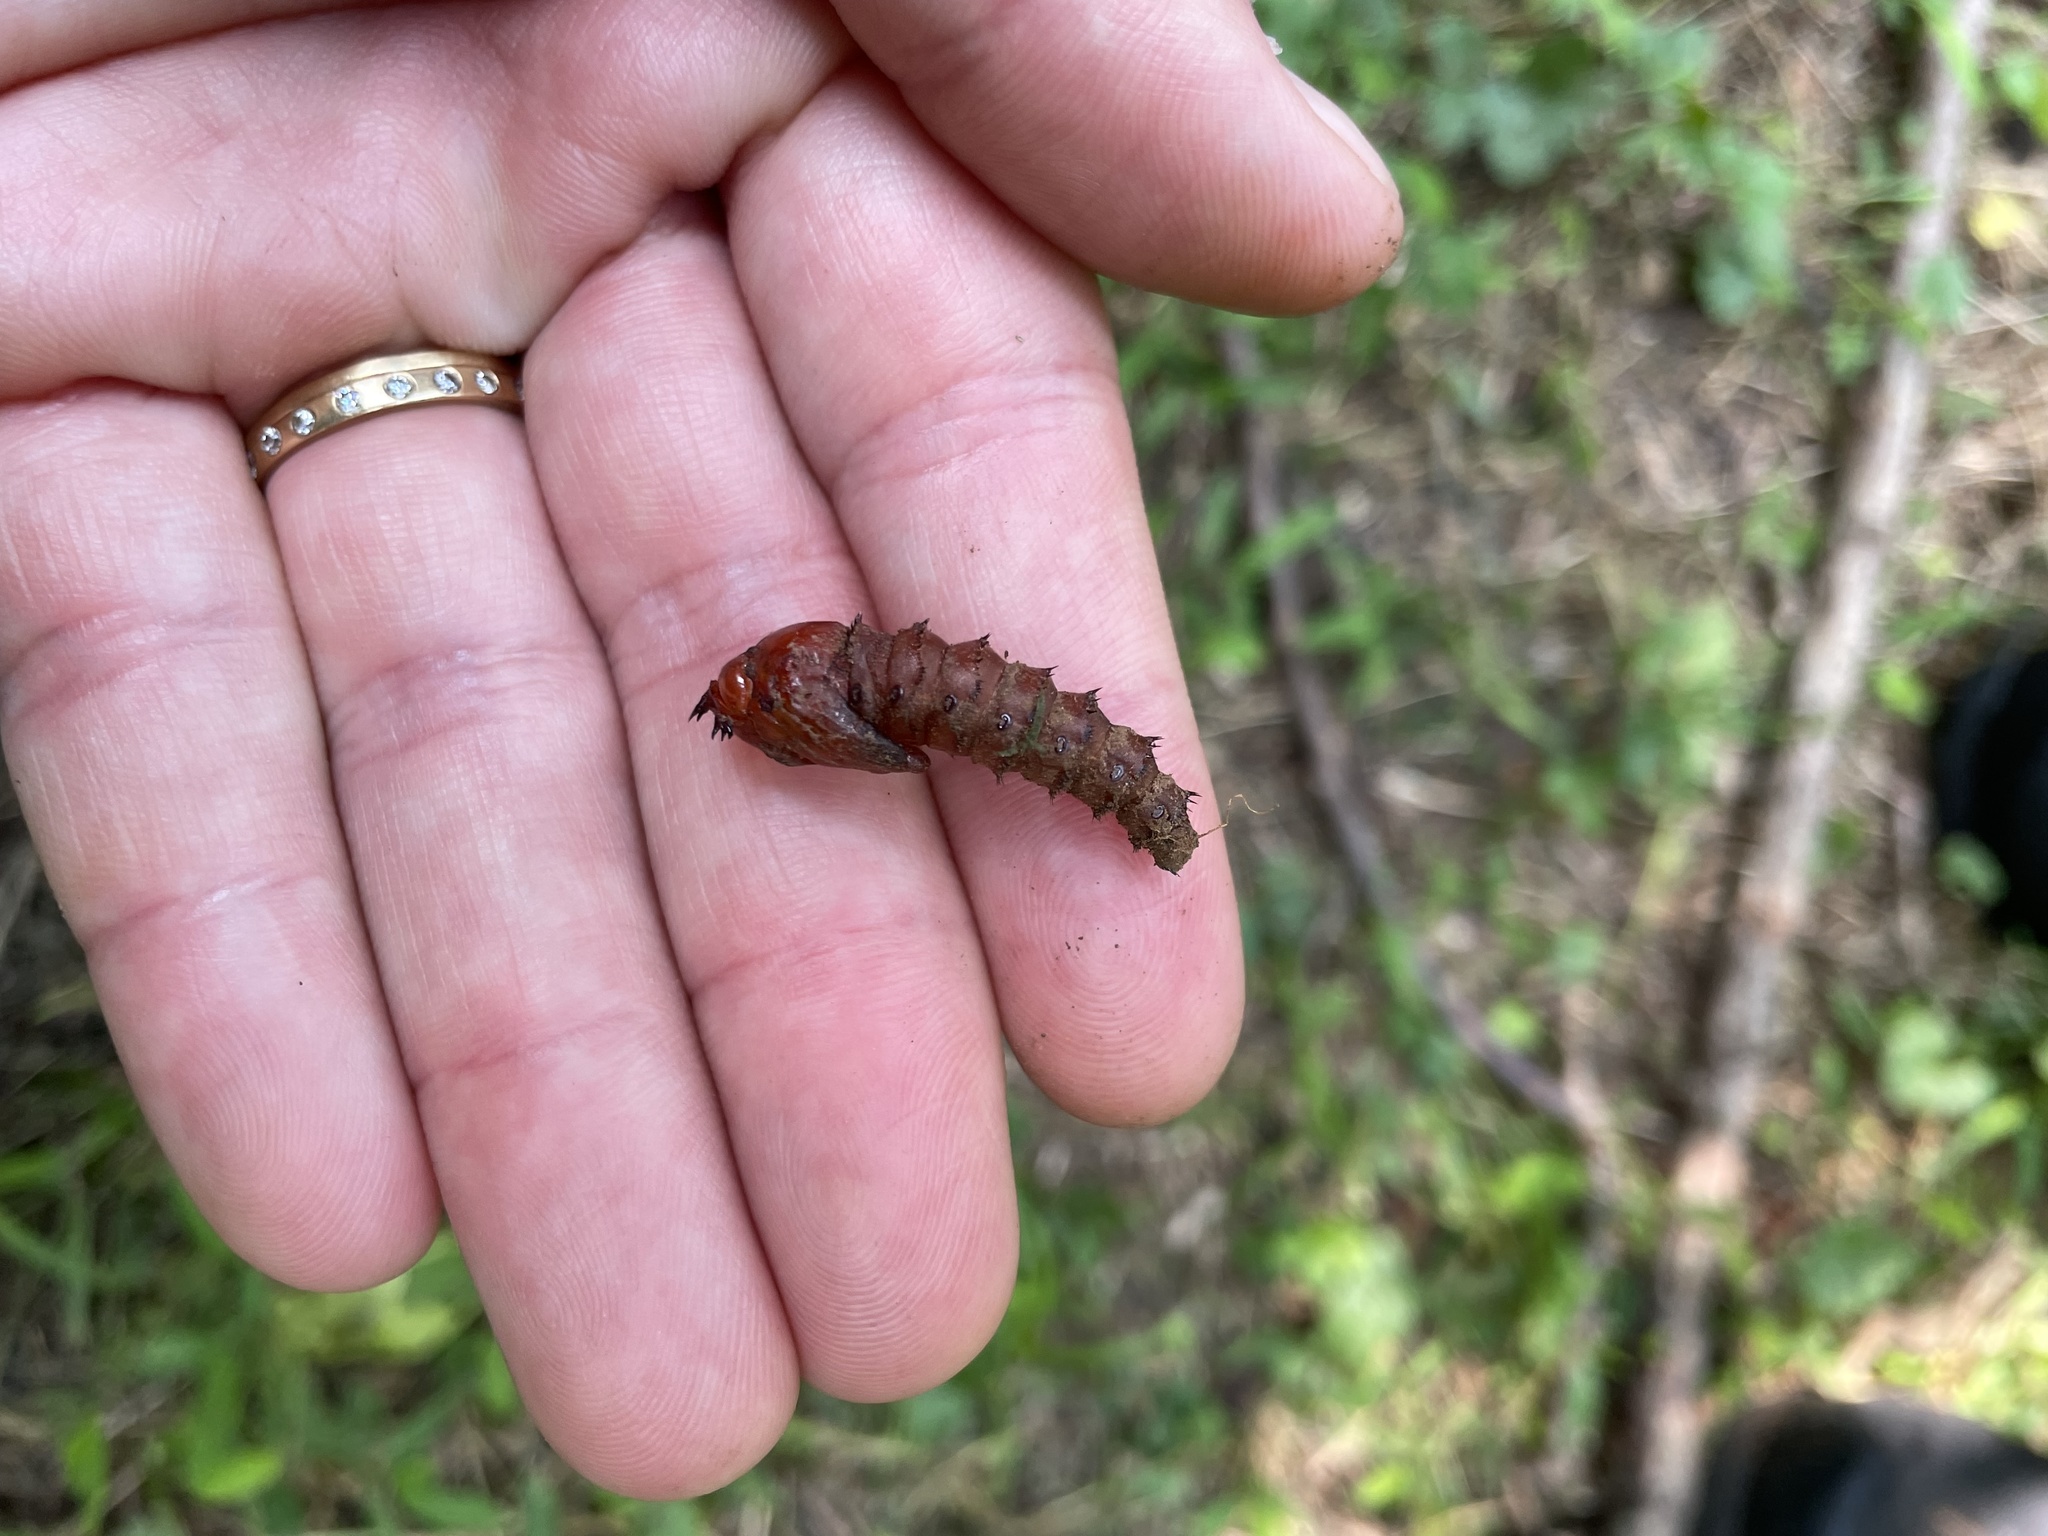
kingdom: Animalia
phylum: Arthropoda
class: Insecta
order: Diptera
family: Asilidae
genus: Promachus
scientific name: Promachus rufipes
